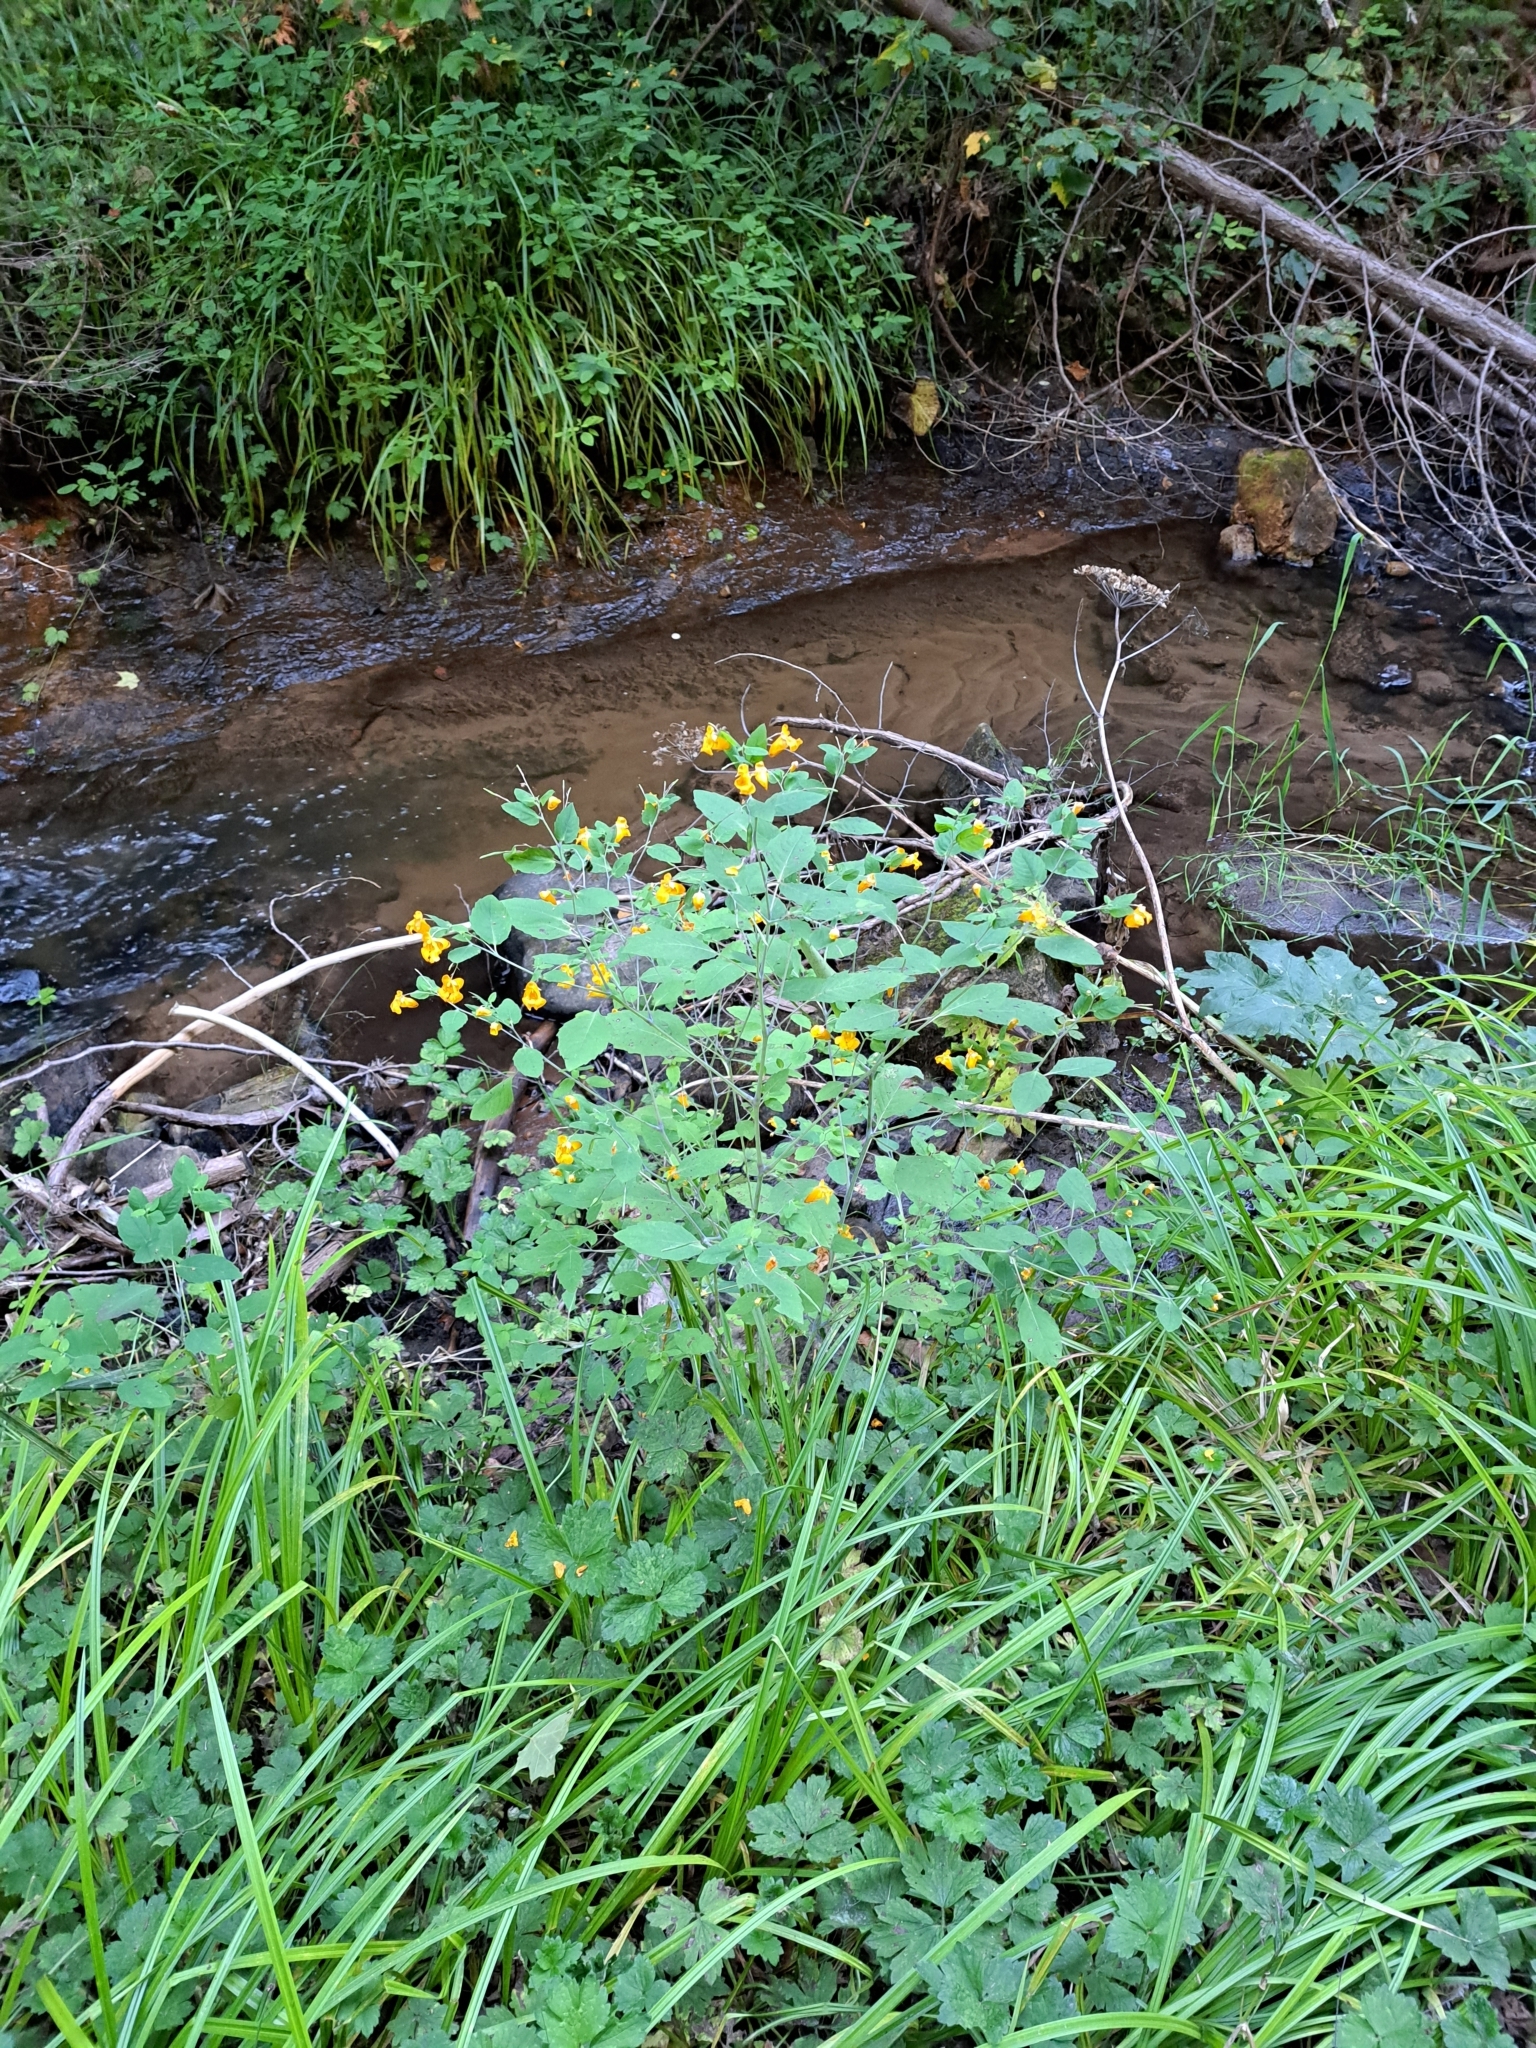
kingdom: Plantae
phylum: Tracheophyta
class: Magnoliopsida
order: Ericales
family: Balsaminaceae
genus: Impatiens
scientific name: Impatiens capensis
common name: Orange balsam
